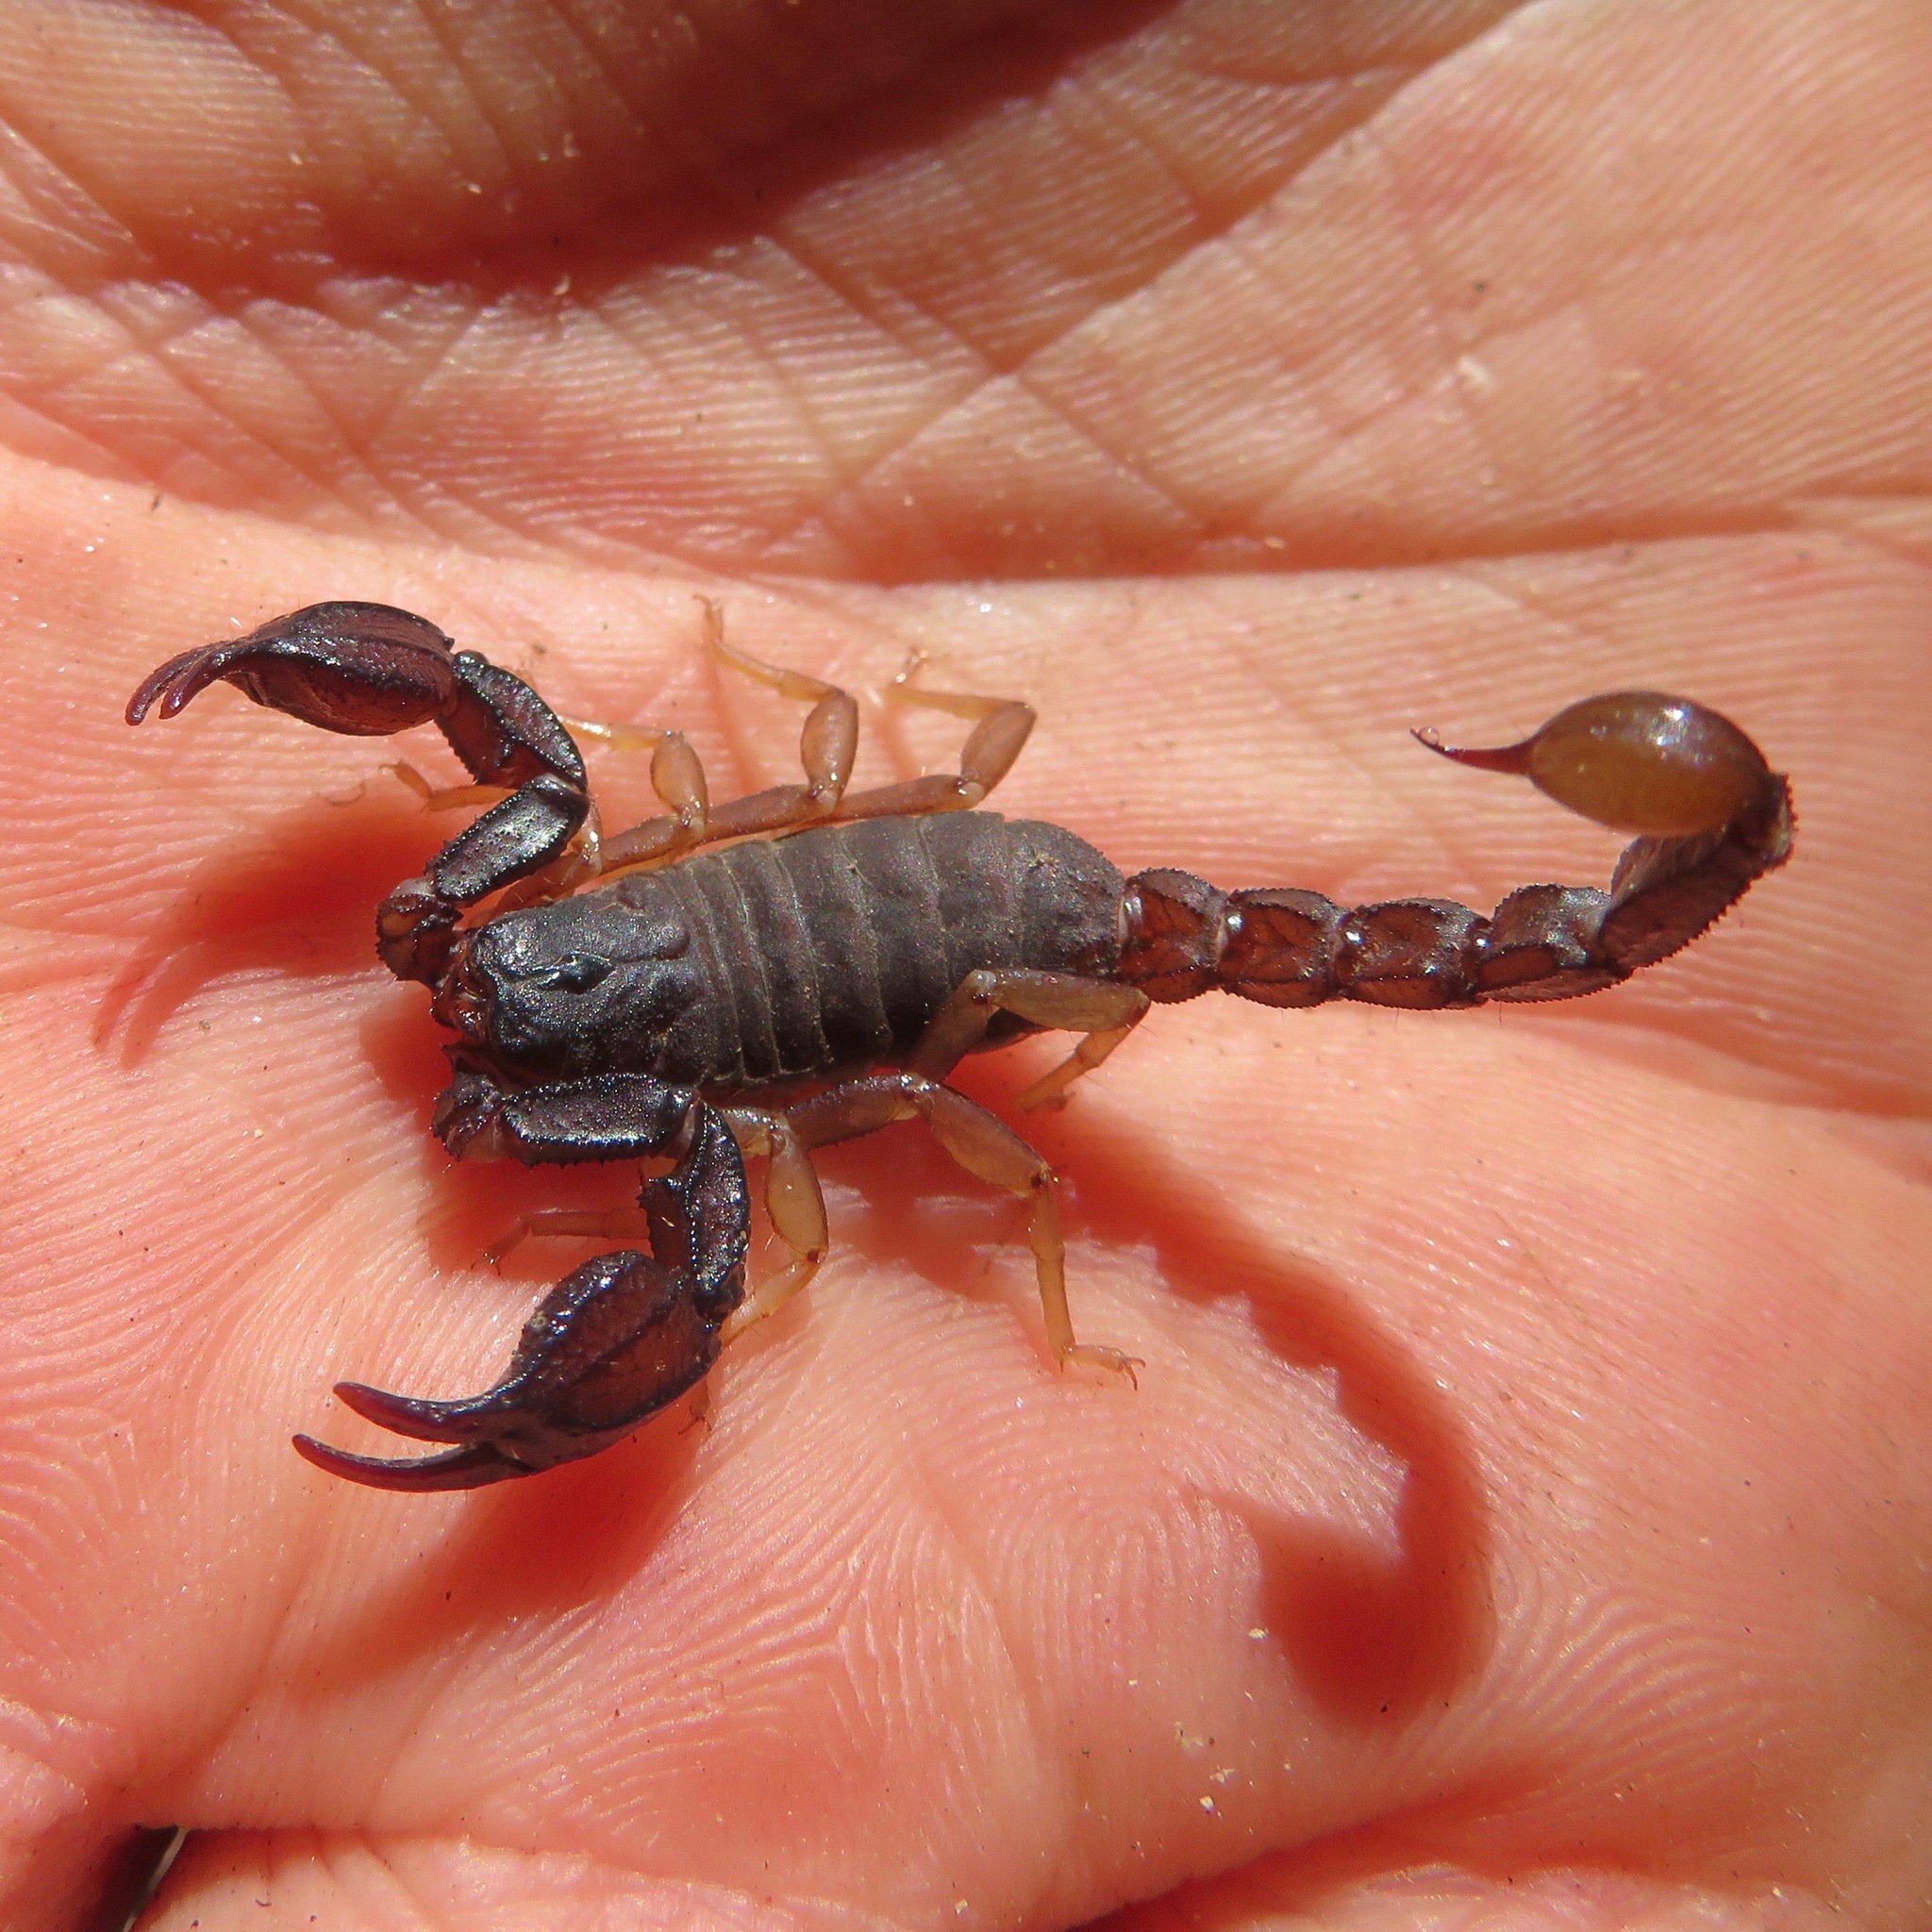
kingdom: Animalia
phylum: Arthropoda
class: Arachnida
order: Scorpiones
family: Chactidae
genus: Uroctonus
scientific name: Uroctonus mordax
